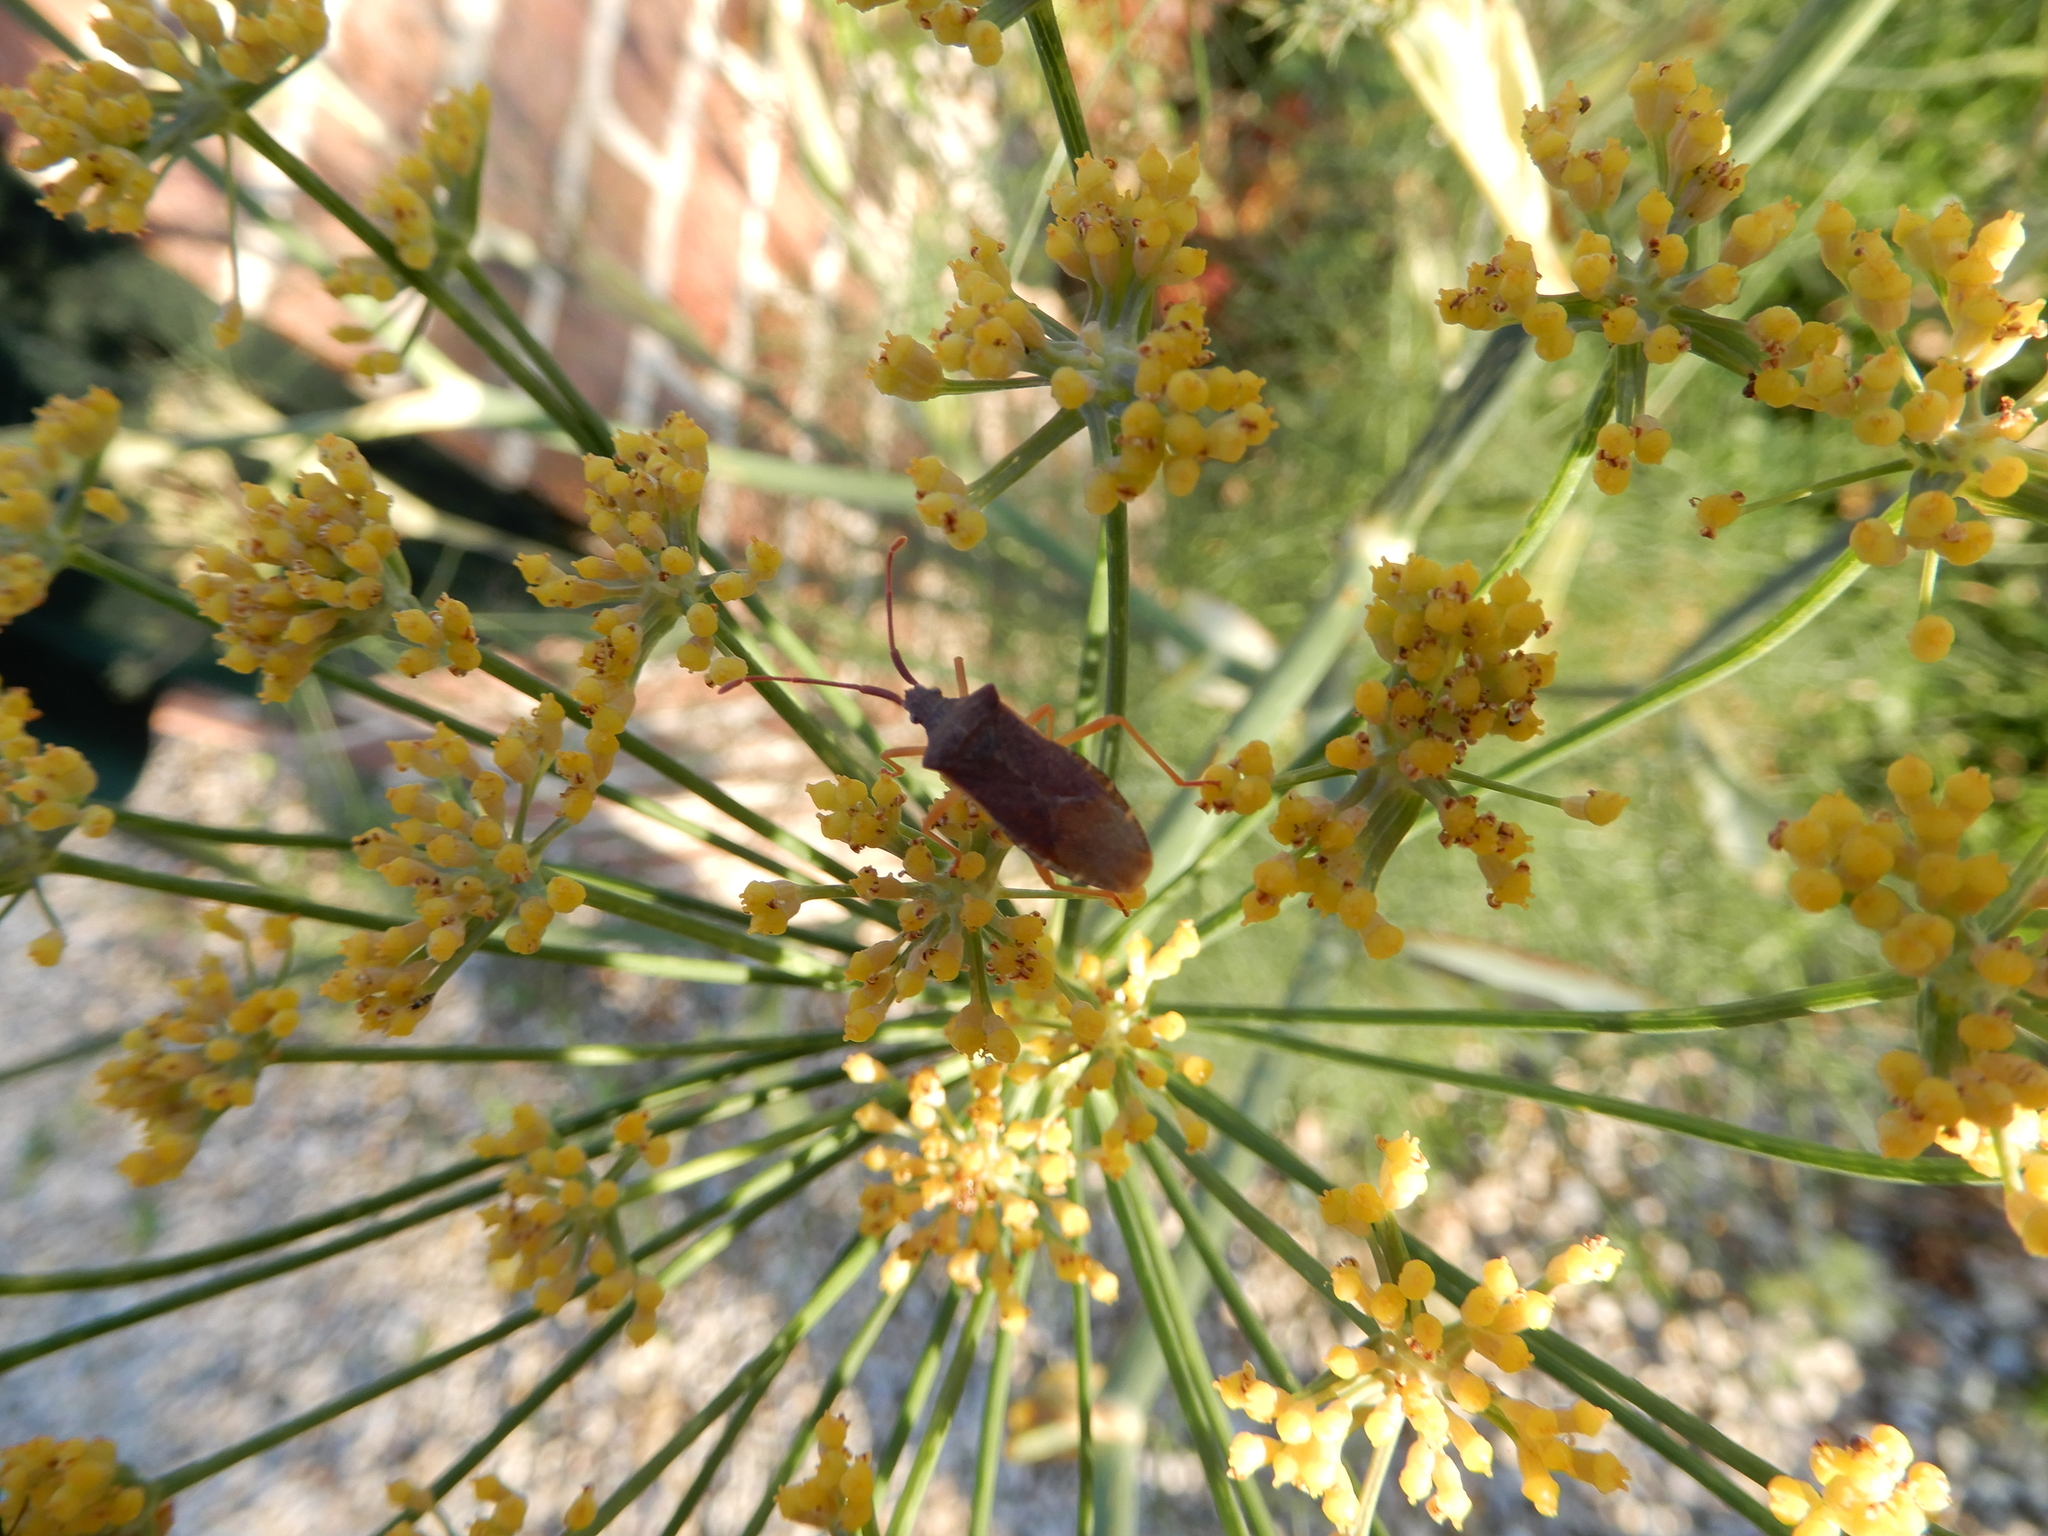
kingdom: Animalia
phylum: Arthropoda
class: Insecta
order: Hemiptera
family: Coreidae
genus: Gonocerus
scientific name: Gonocerus acuteangulatus
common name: Box bug
